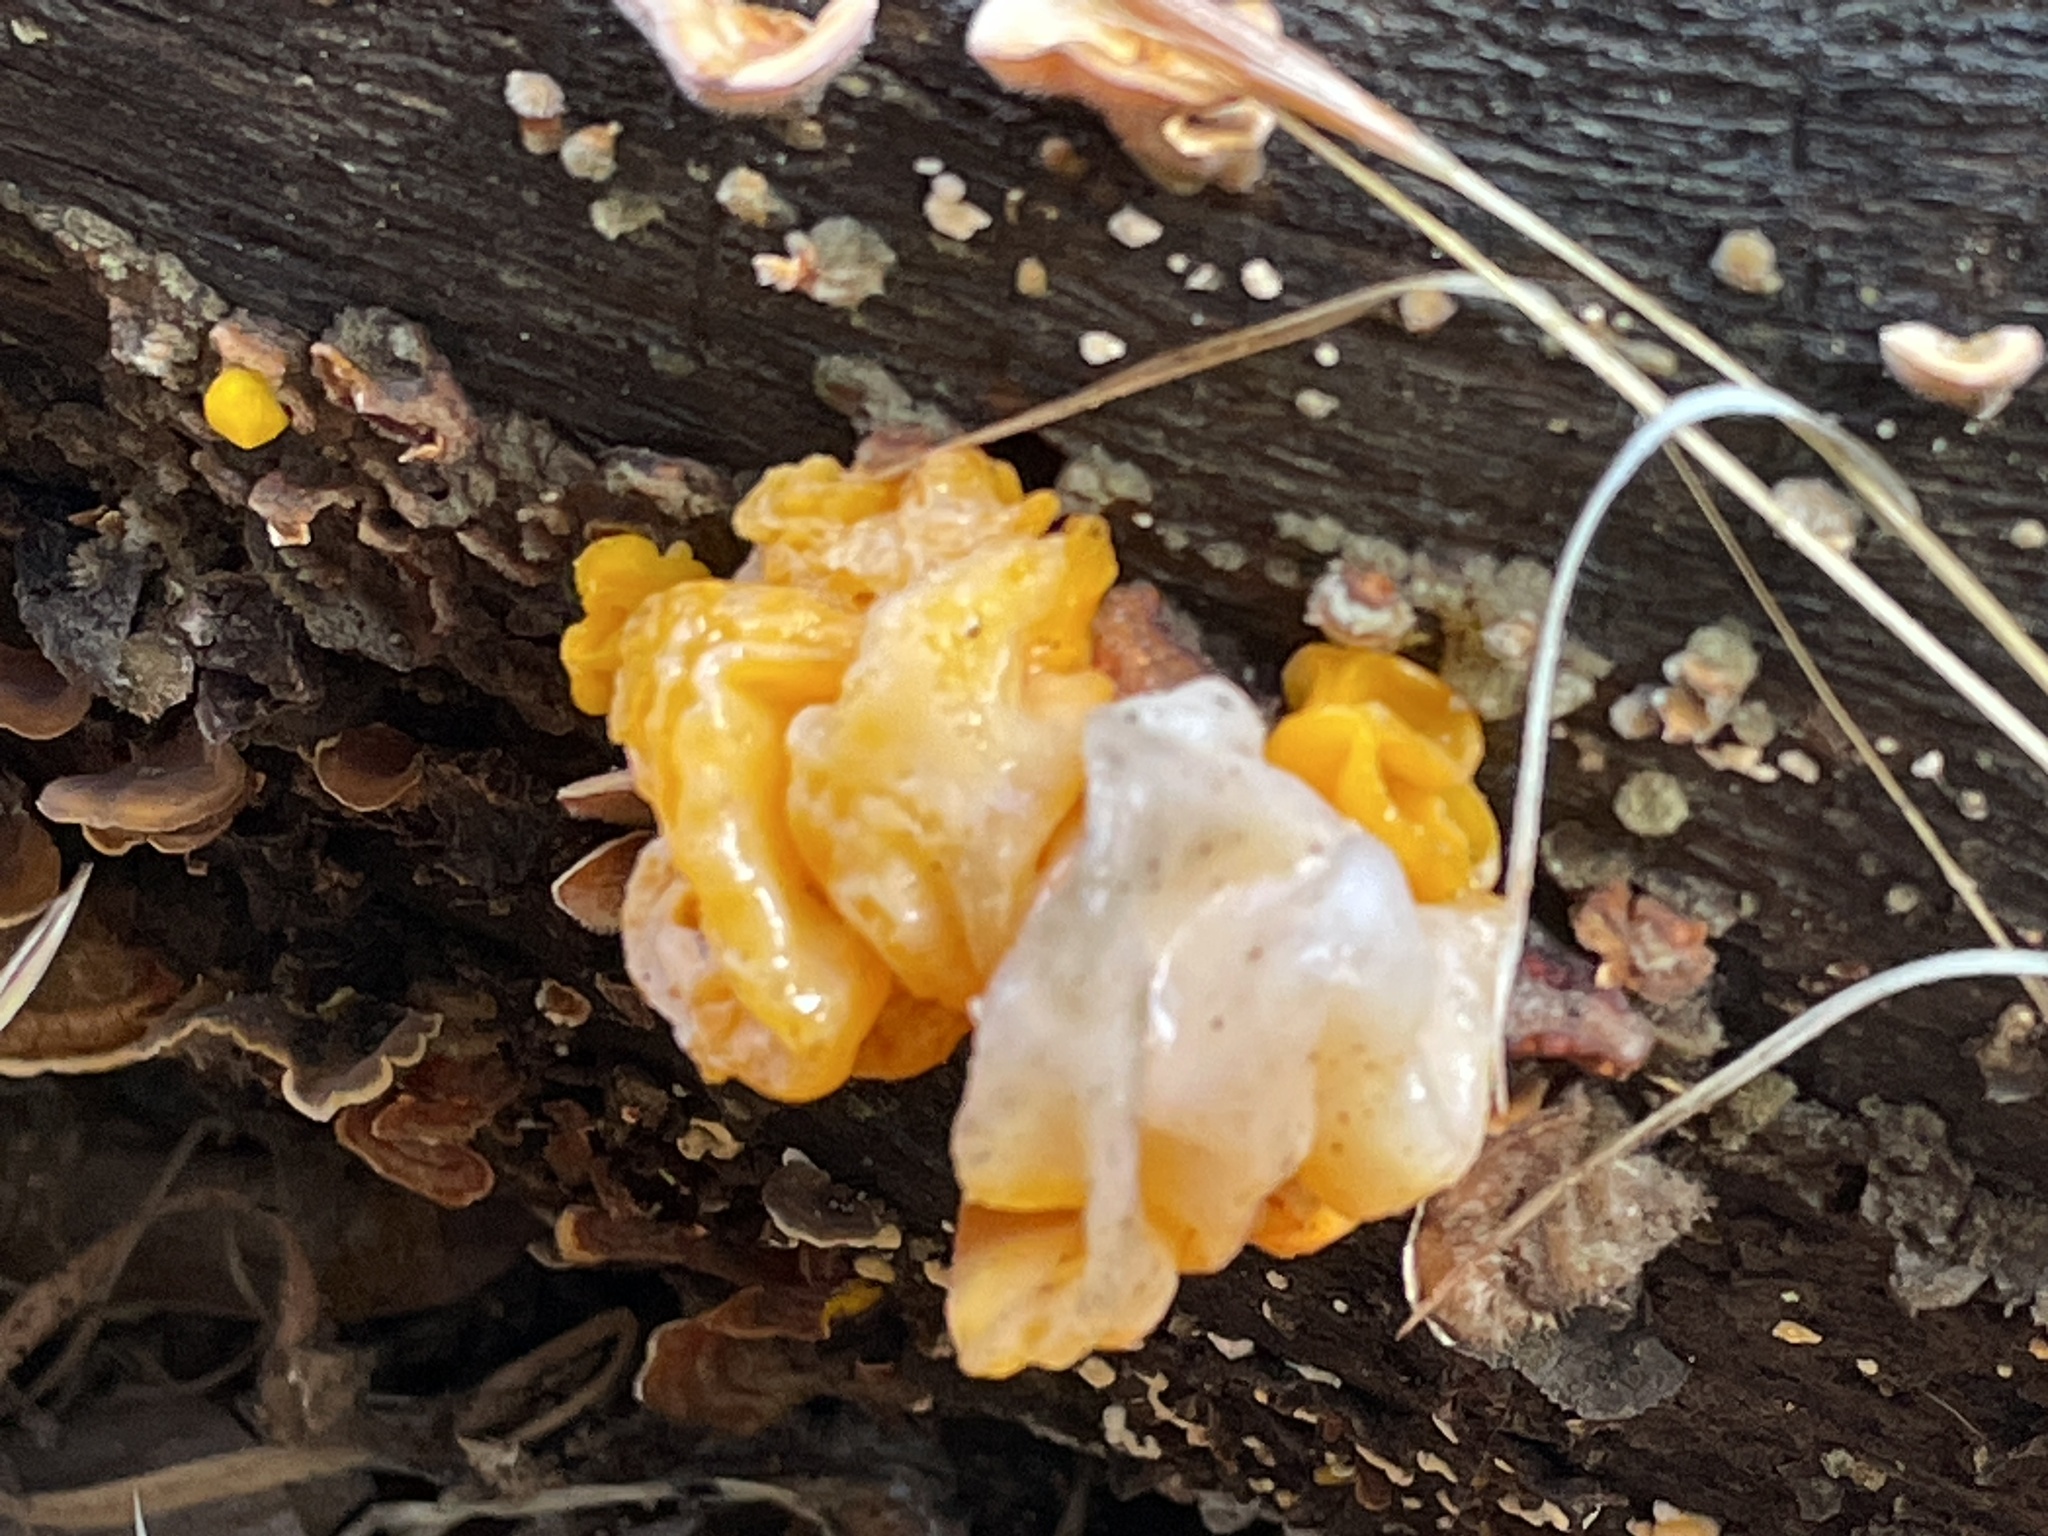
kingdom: Fungi
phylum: Basidiomycota
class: Tremellomycetes
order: Tremellales
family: Naemateliaceae
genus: Naematelia
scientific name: Naematelia aurantia
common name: Golden ear
